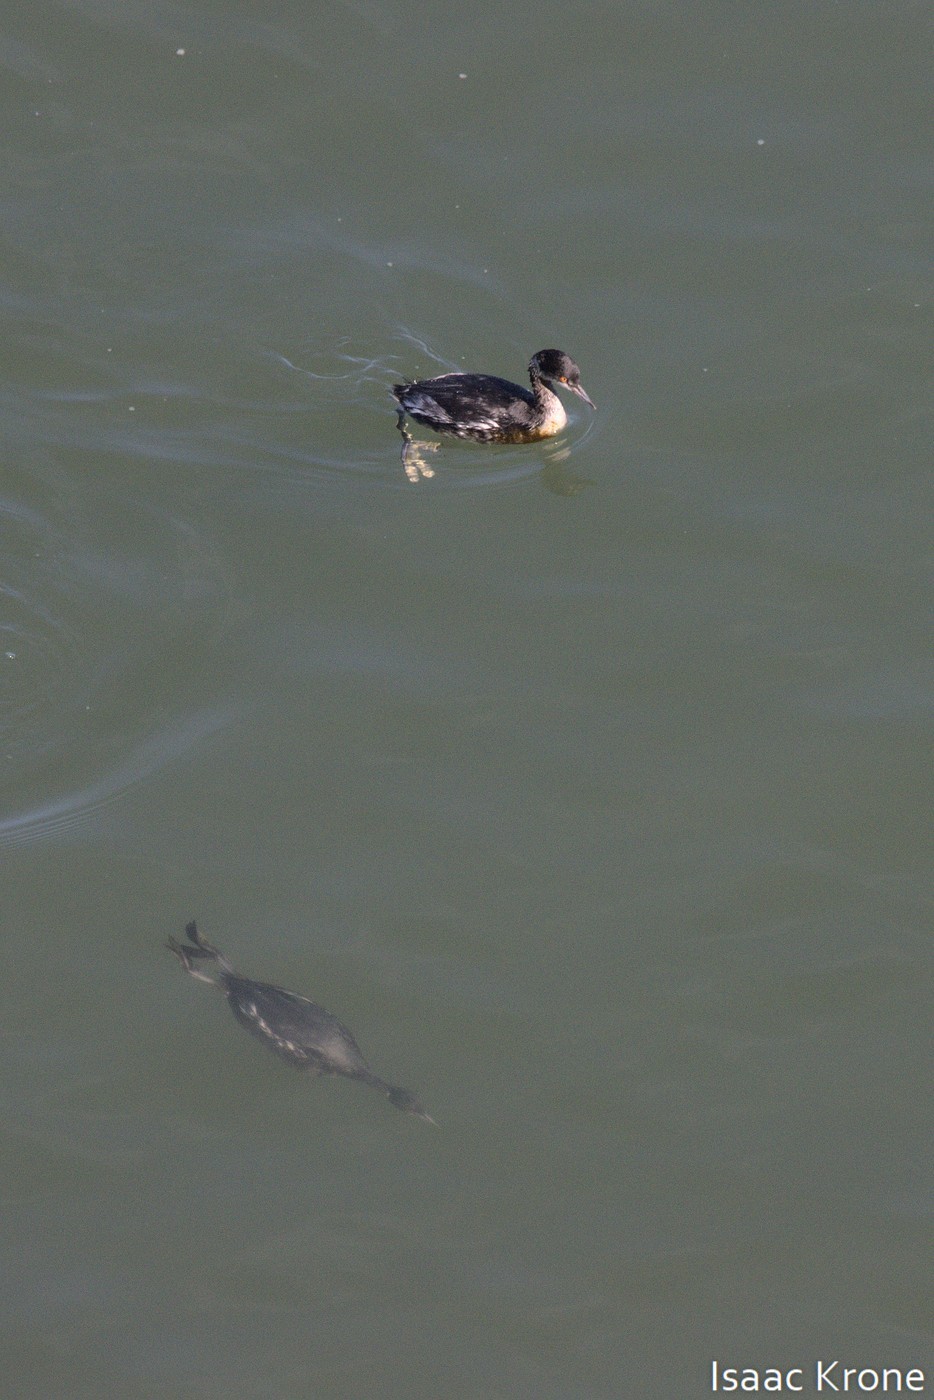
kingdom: Animalia
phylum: Chordata
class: Aves
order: Podicipediformes
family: Podicipedidae
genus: Podiceps
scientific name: Podiceps nigricollis
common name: Black-necked grebe
